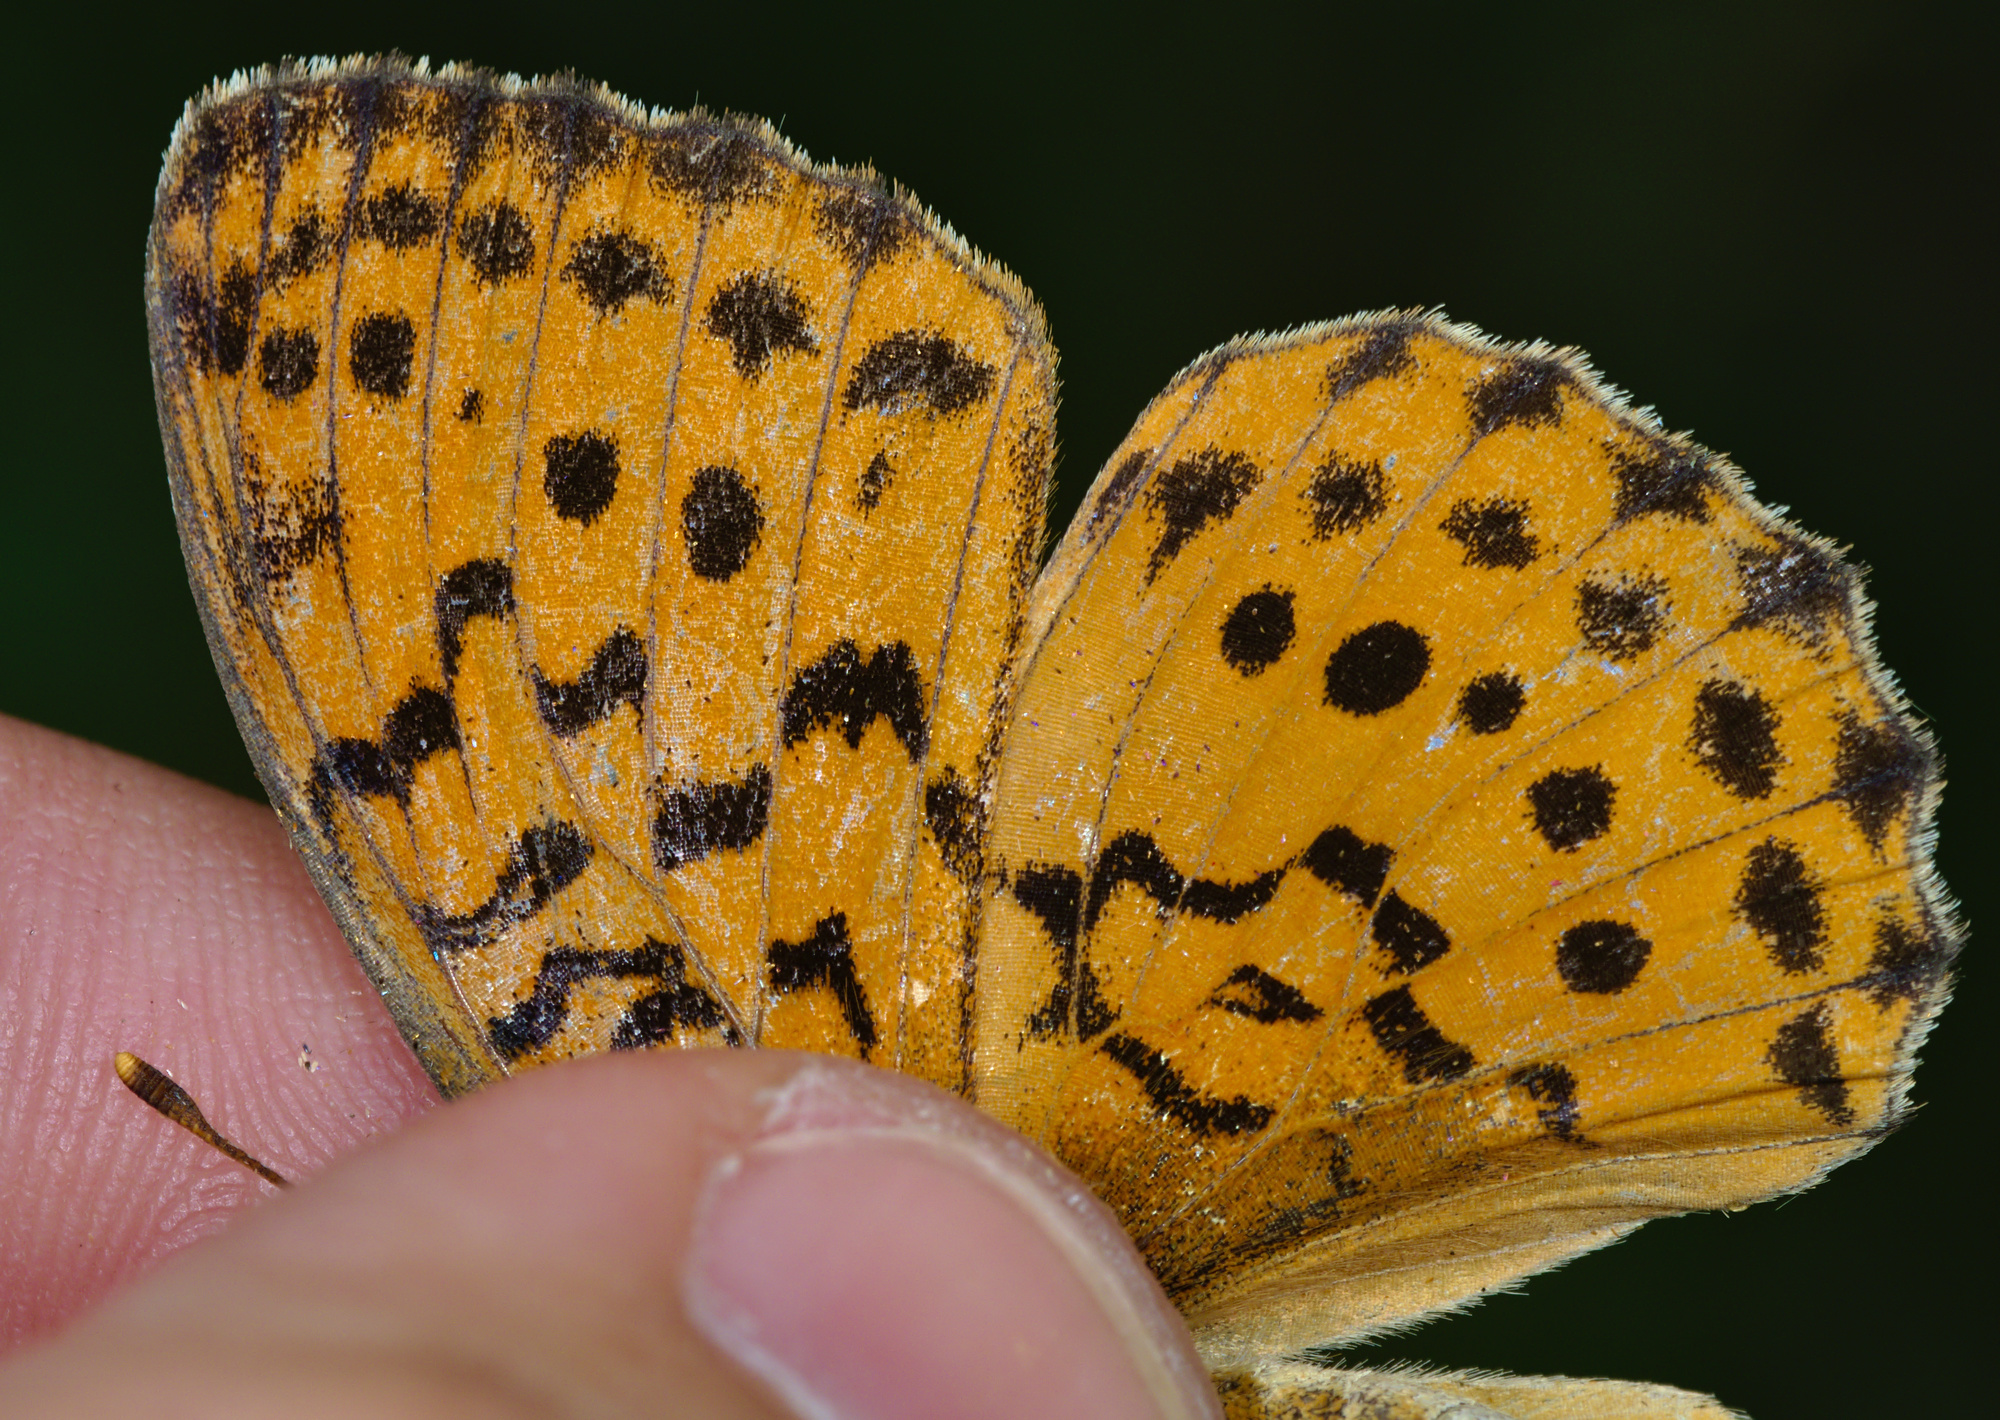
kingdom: Animalia
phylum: Arthropoda
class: Insecta
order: Lepidoptera
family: Nymphalidae
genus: Brenthis
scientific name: Brenthis daphne
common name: Marbled fritillary
